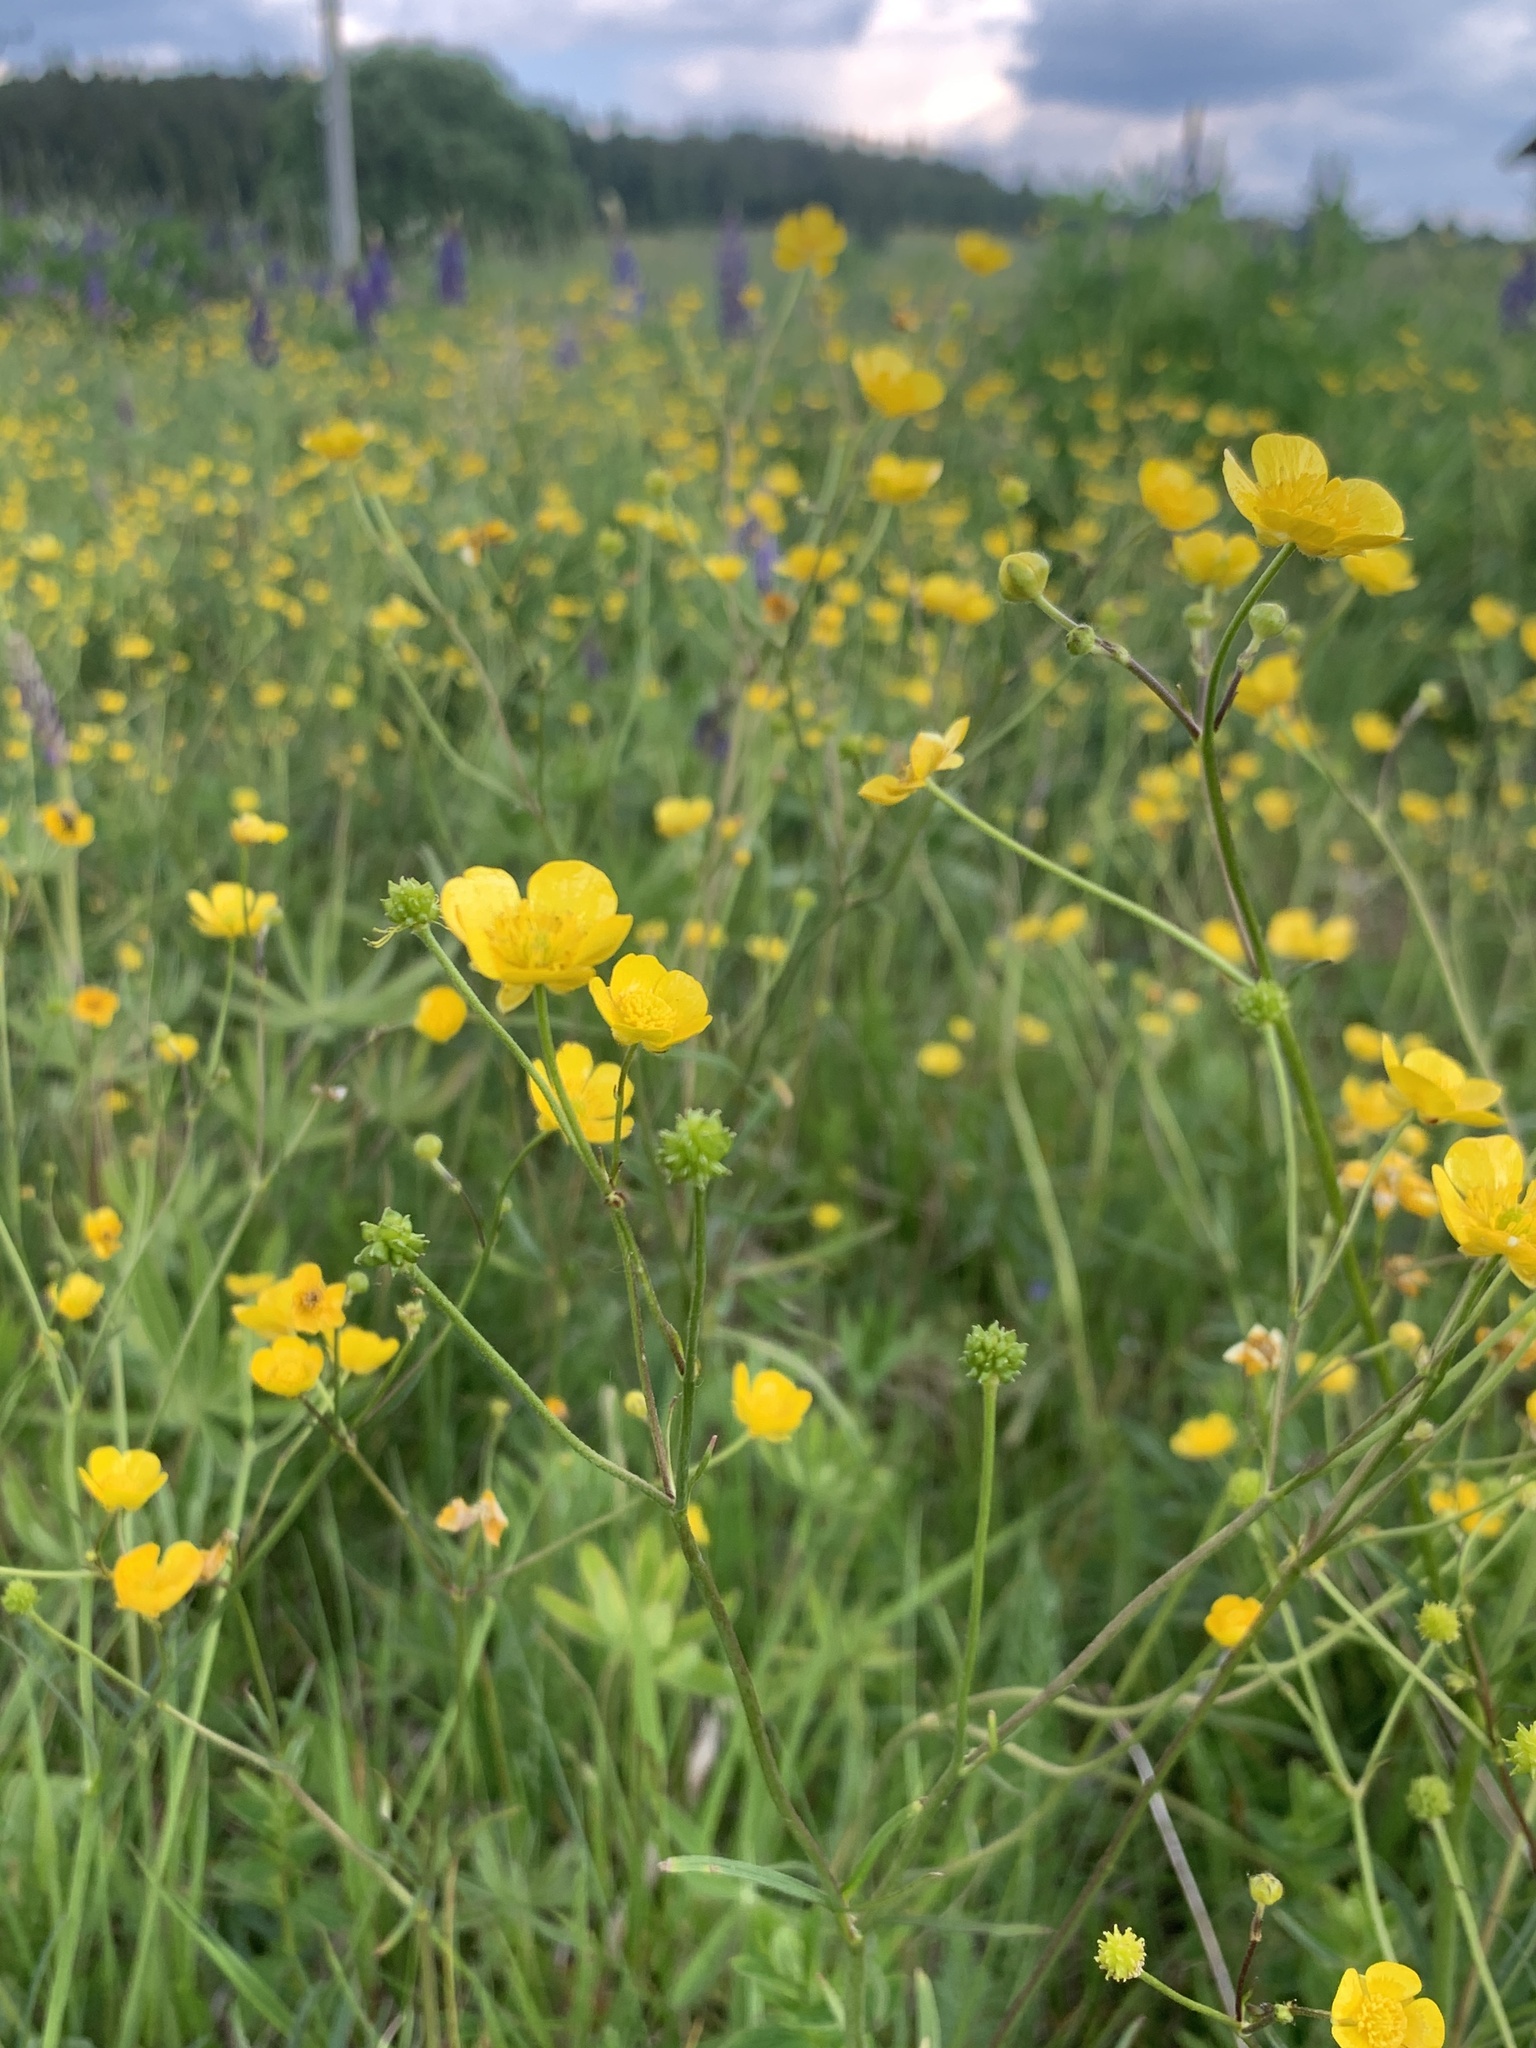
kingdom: Plantae
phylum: Tracheophyta
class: Magnoliopsida
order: Ranunculales
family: Ranunculaceae
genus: Ranunculus
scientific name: Ranunculus acris
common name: Meadow buttercup
